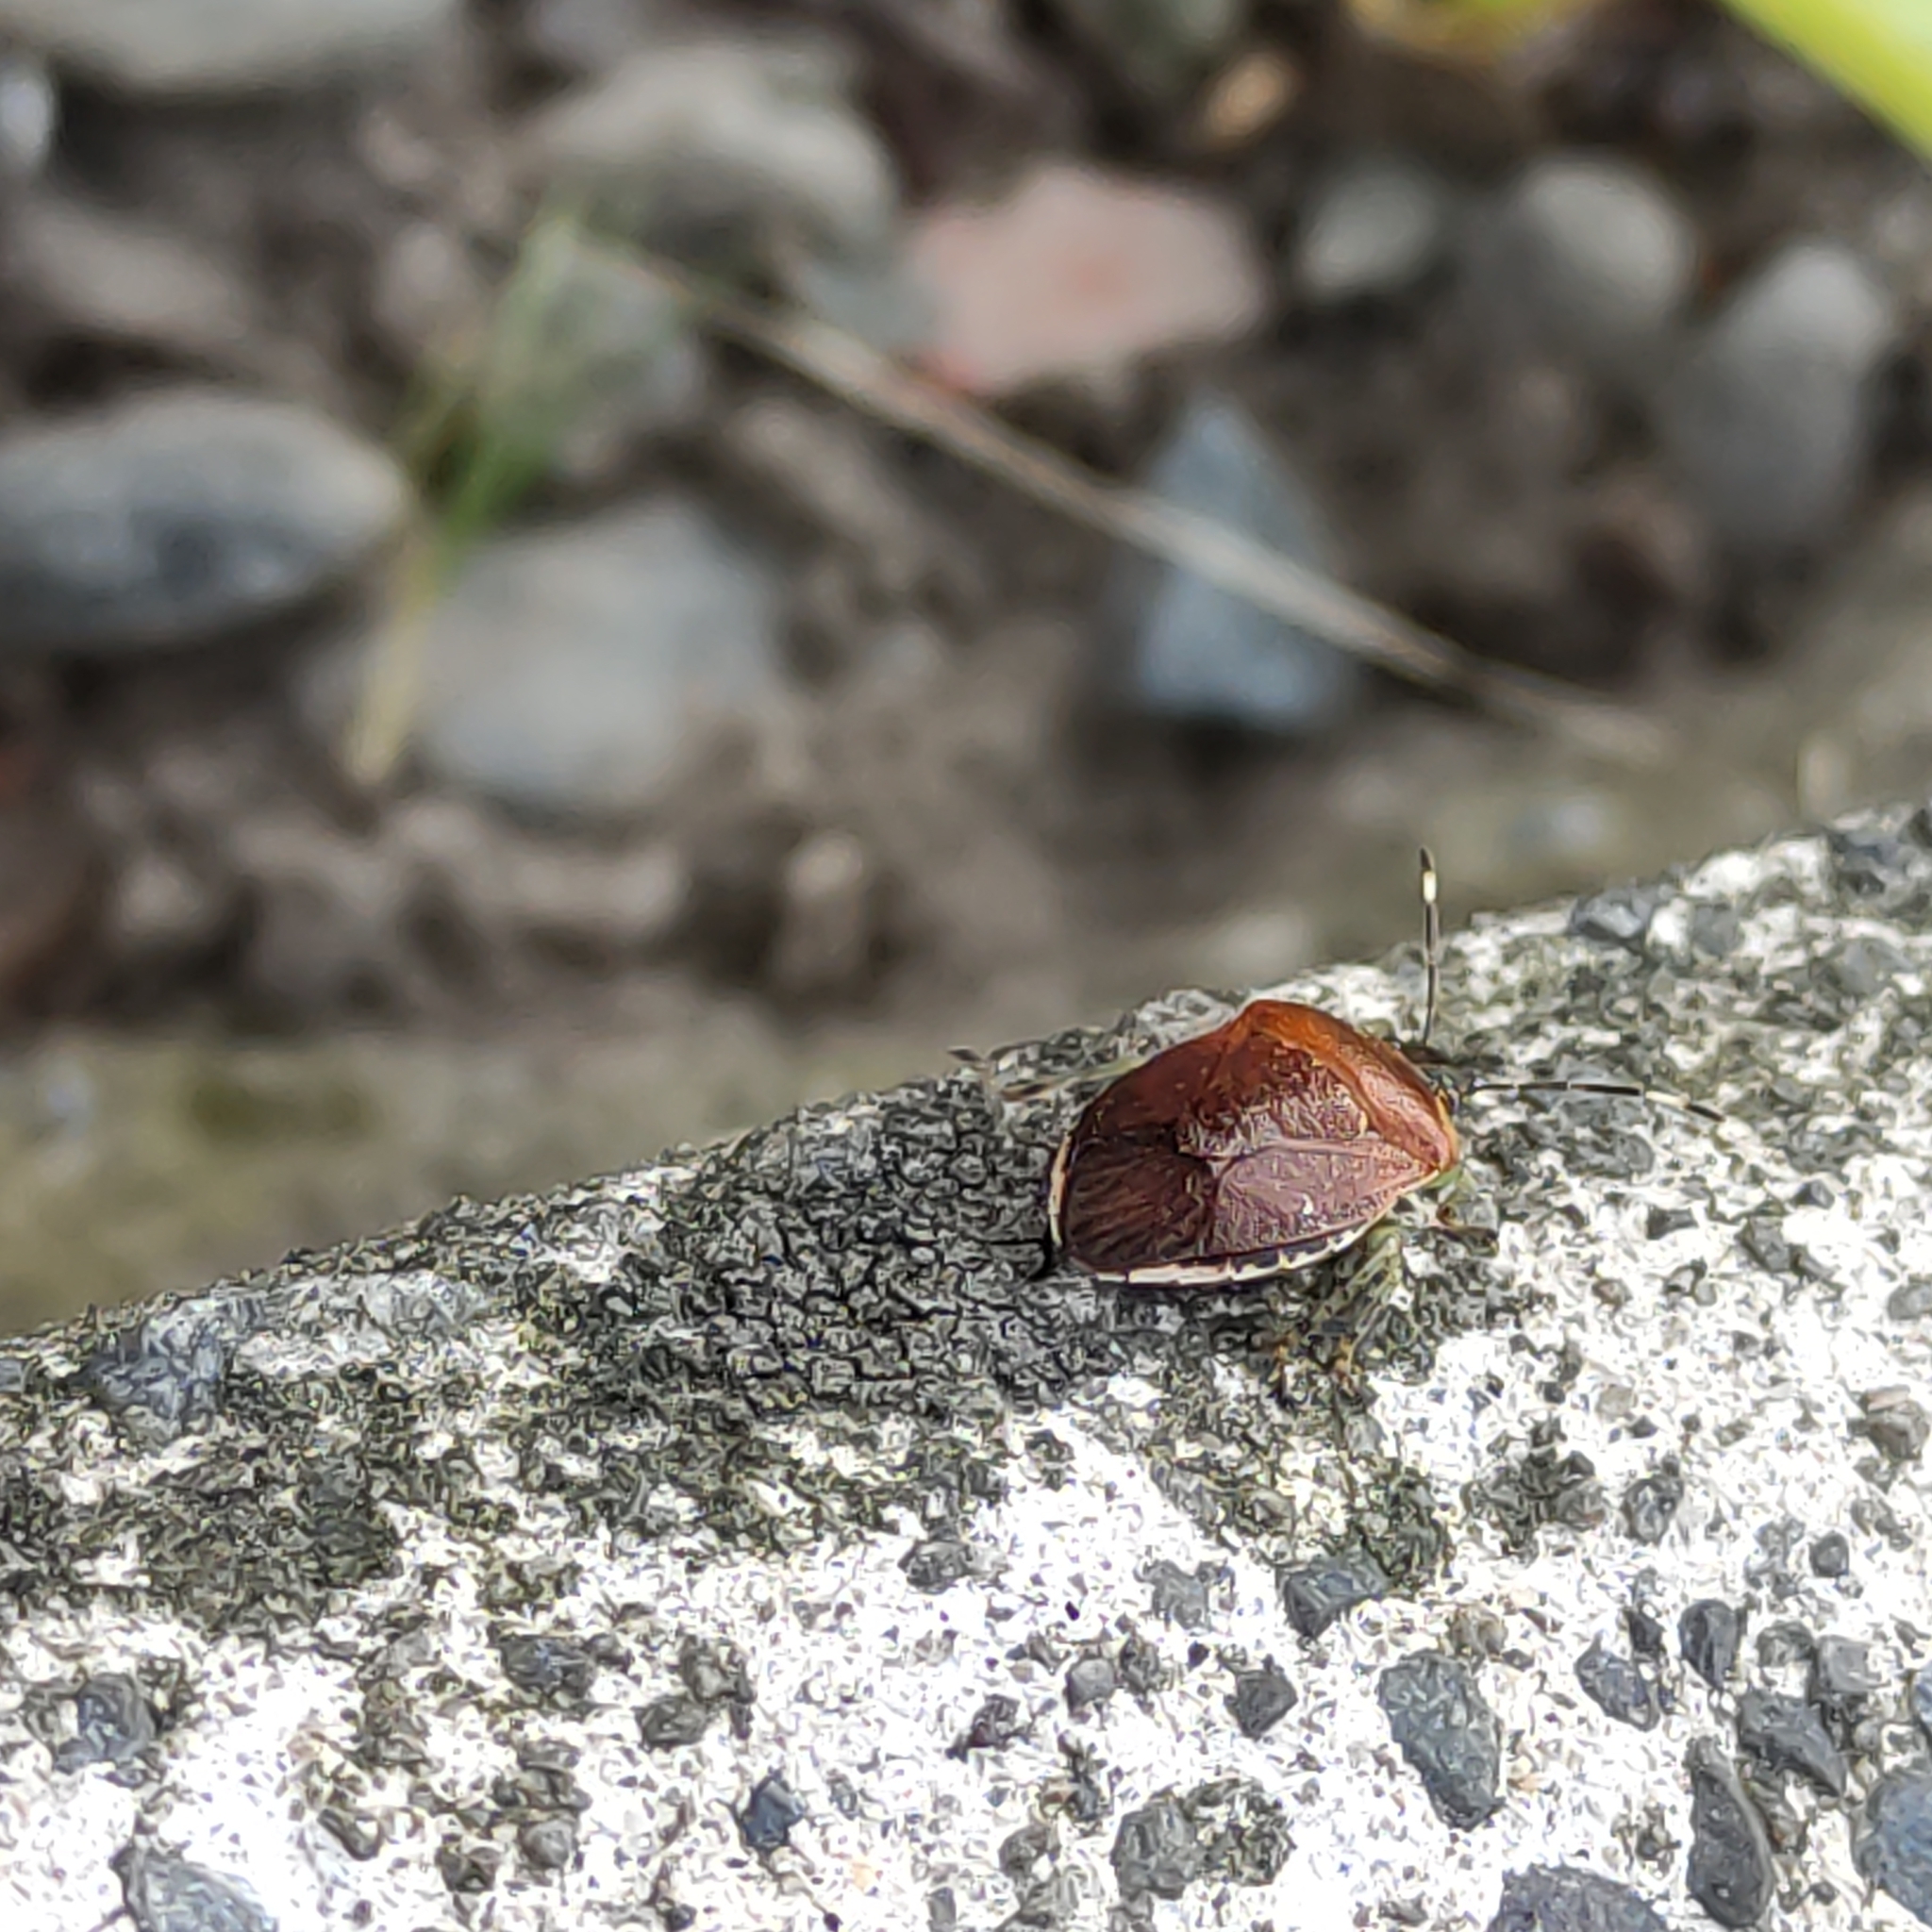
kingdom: Animalia
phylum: Arthropoda
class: Insecta
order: Hemiptera
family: Pentatomidae
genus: Monteithiella
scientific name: Monteithiella
